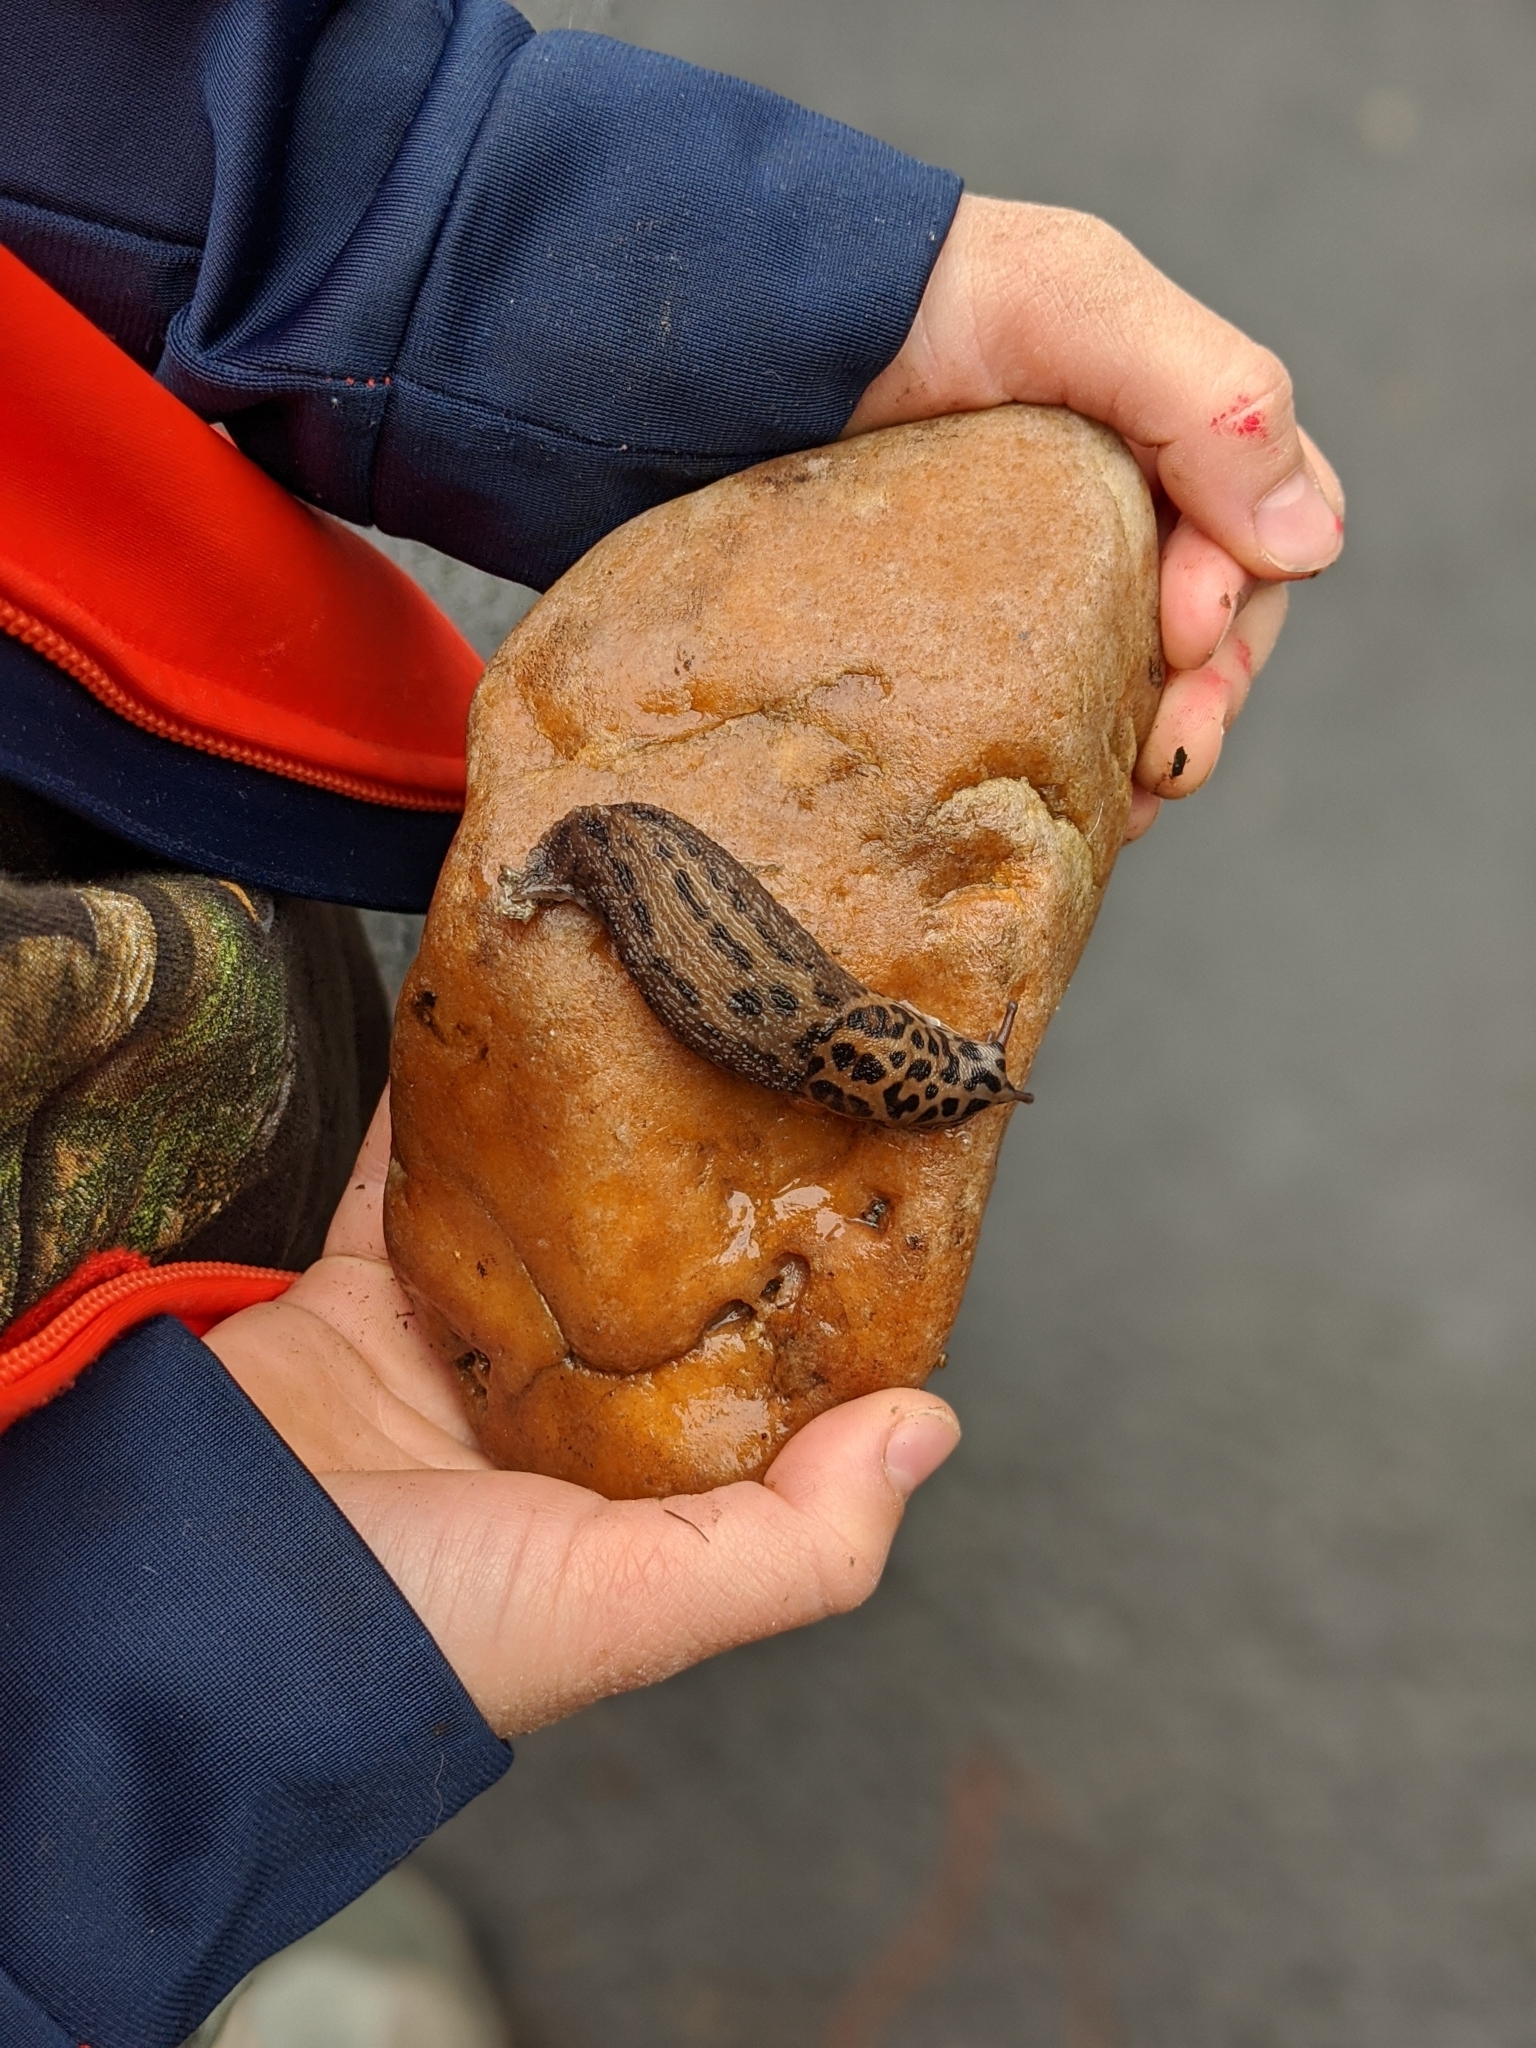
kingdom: Animalia
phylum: Mollusca
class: Gastropoda
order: Stylommatophora
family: Limacidae
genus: Limax
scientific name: Limax maximus
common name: Great grey slug
